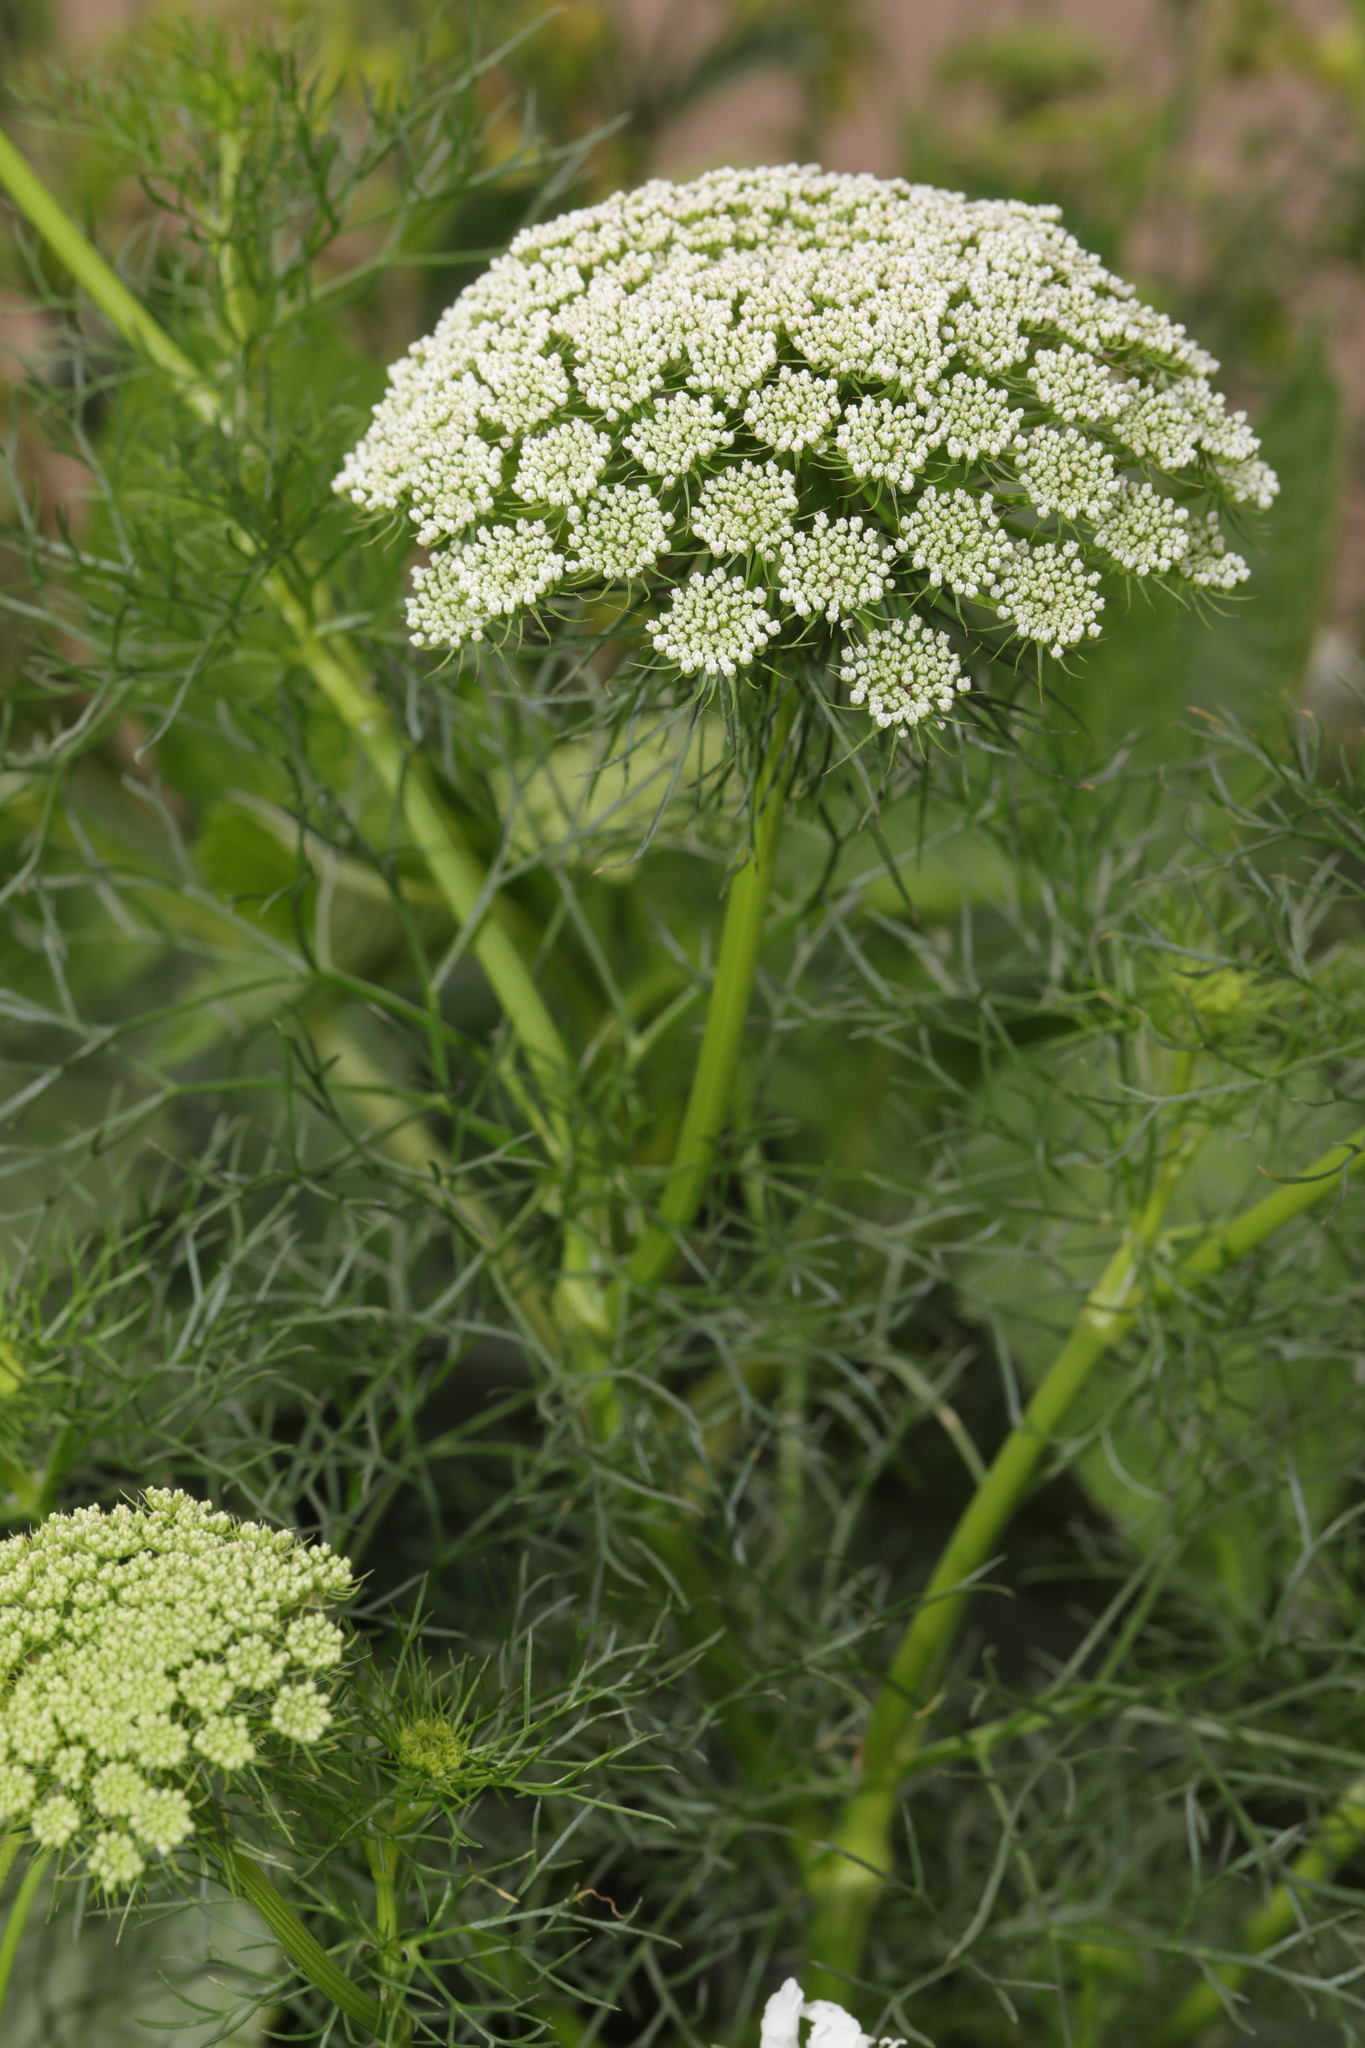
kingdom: Plantae
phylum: Tracheophyta
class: Magnoliopsida
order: Apiales
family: Apiaceae
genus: Visnaga
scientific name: Visnaga daucoides
